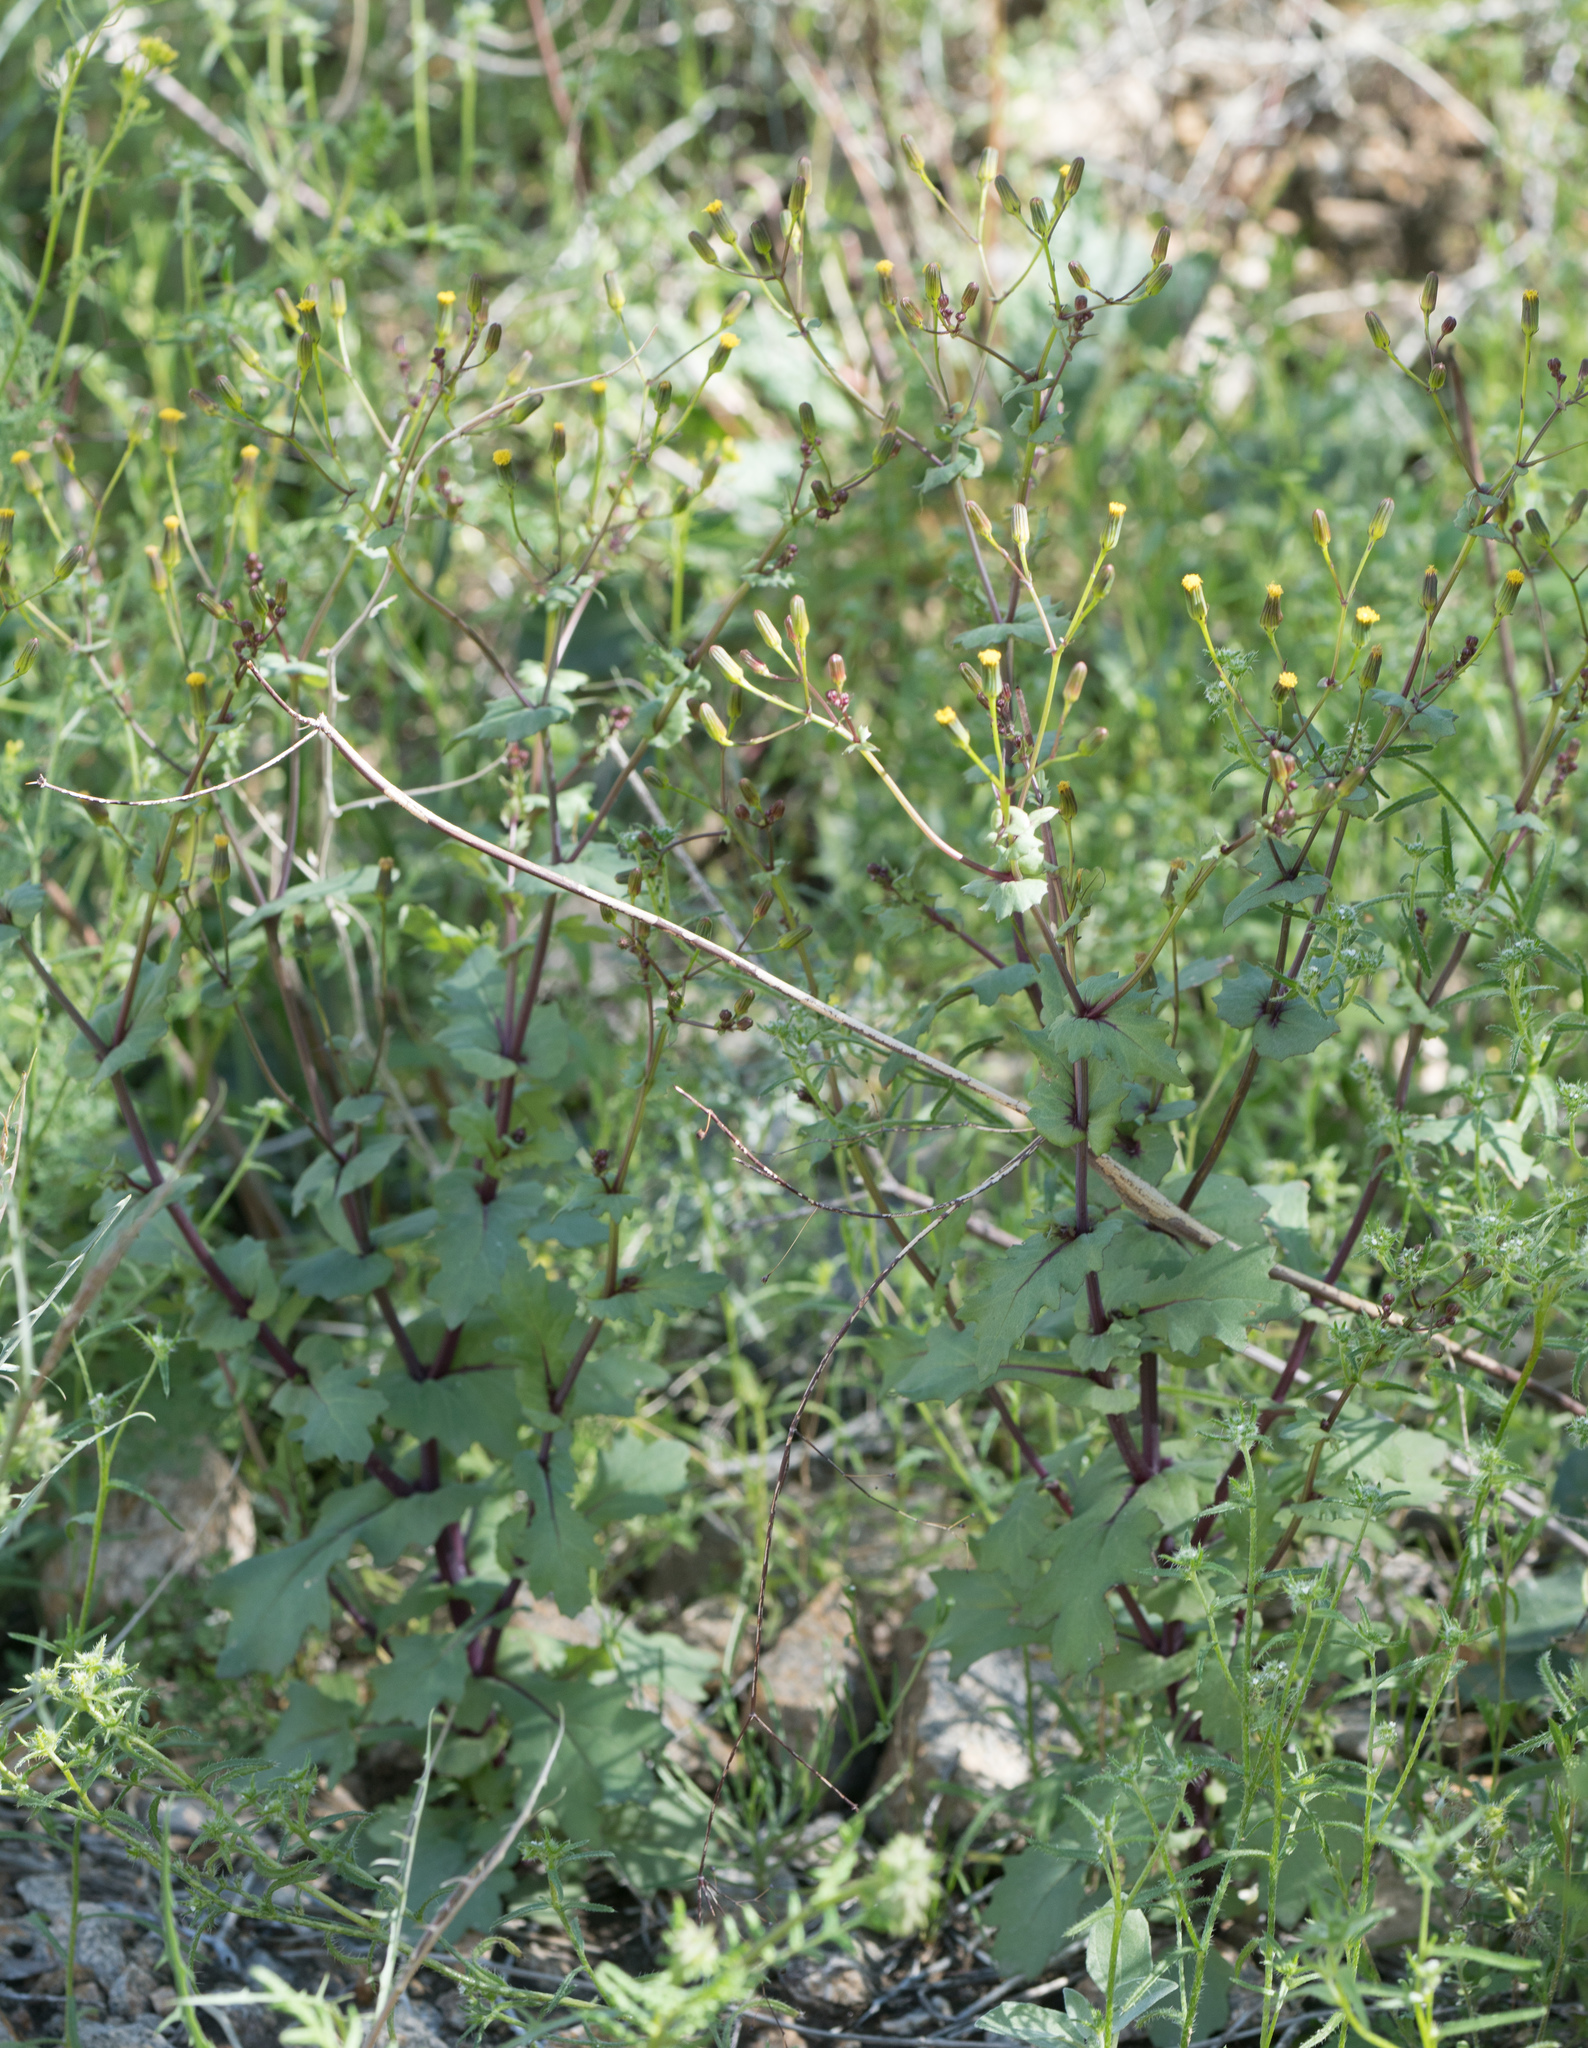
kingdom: Plantae
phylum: Tracheophyta
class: Magnoliopsida
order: Asterales
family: Asteraceae
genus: Senecio
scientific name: Senecio mohavensis
